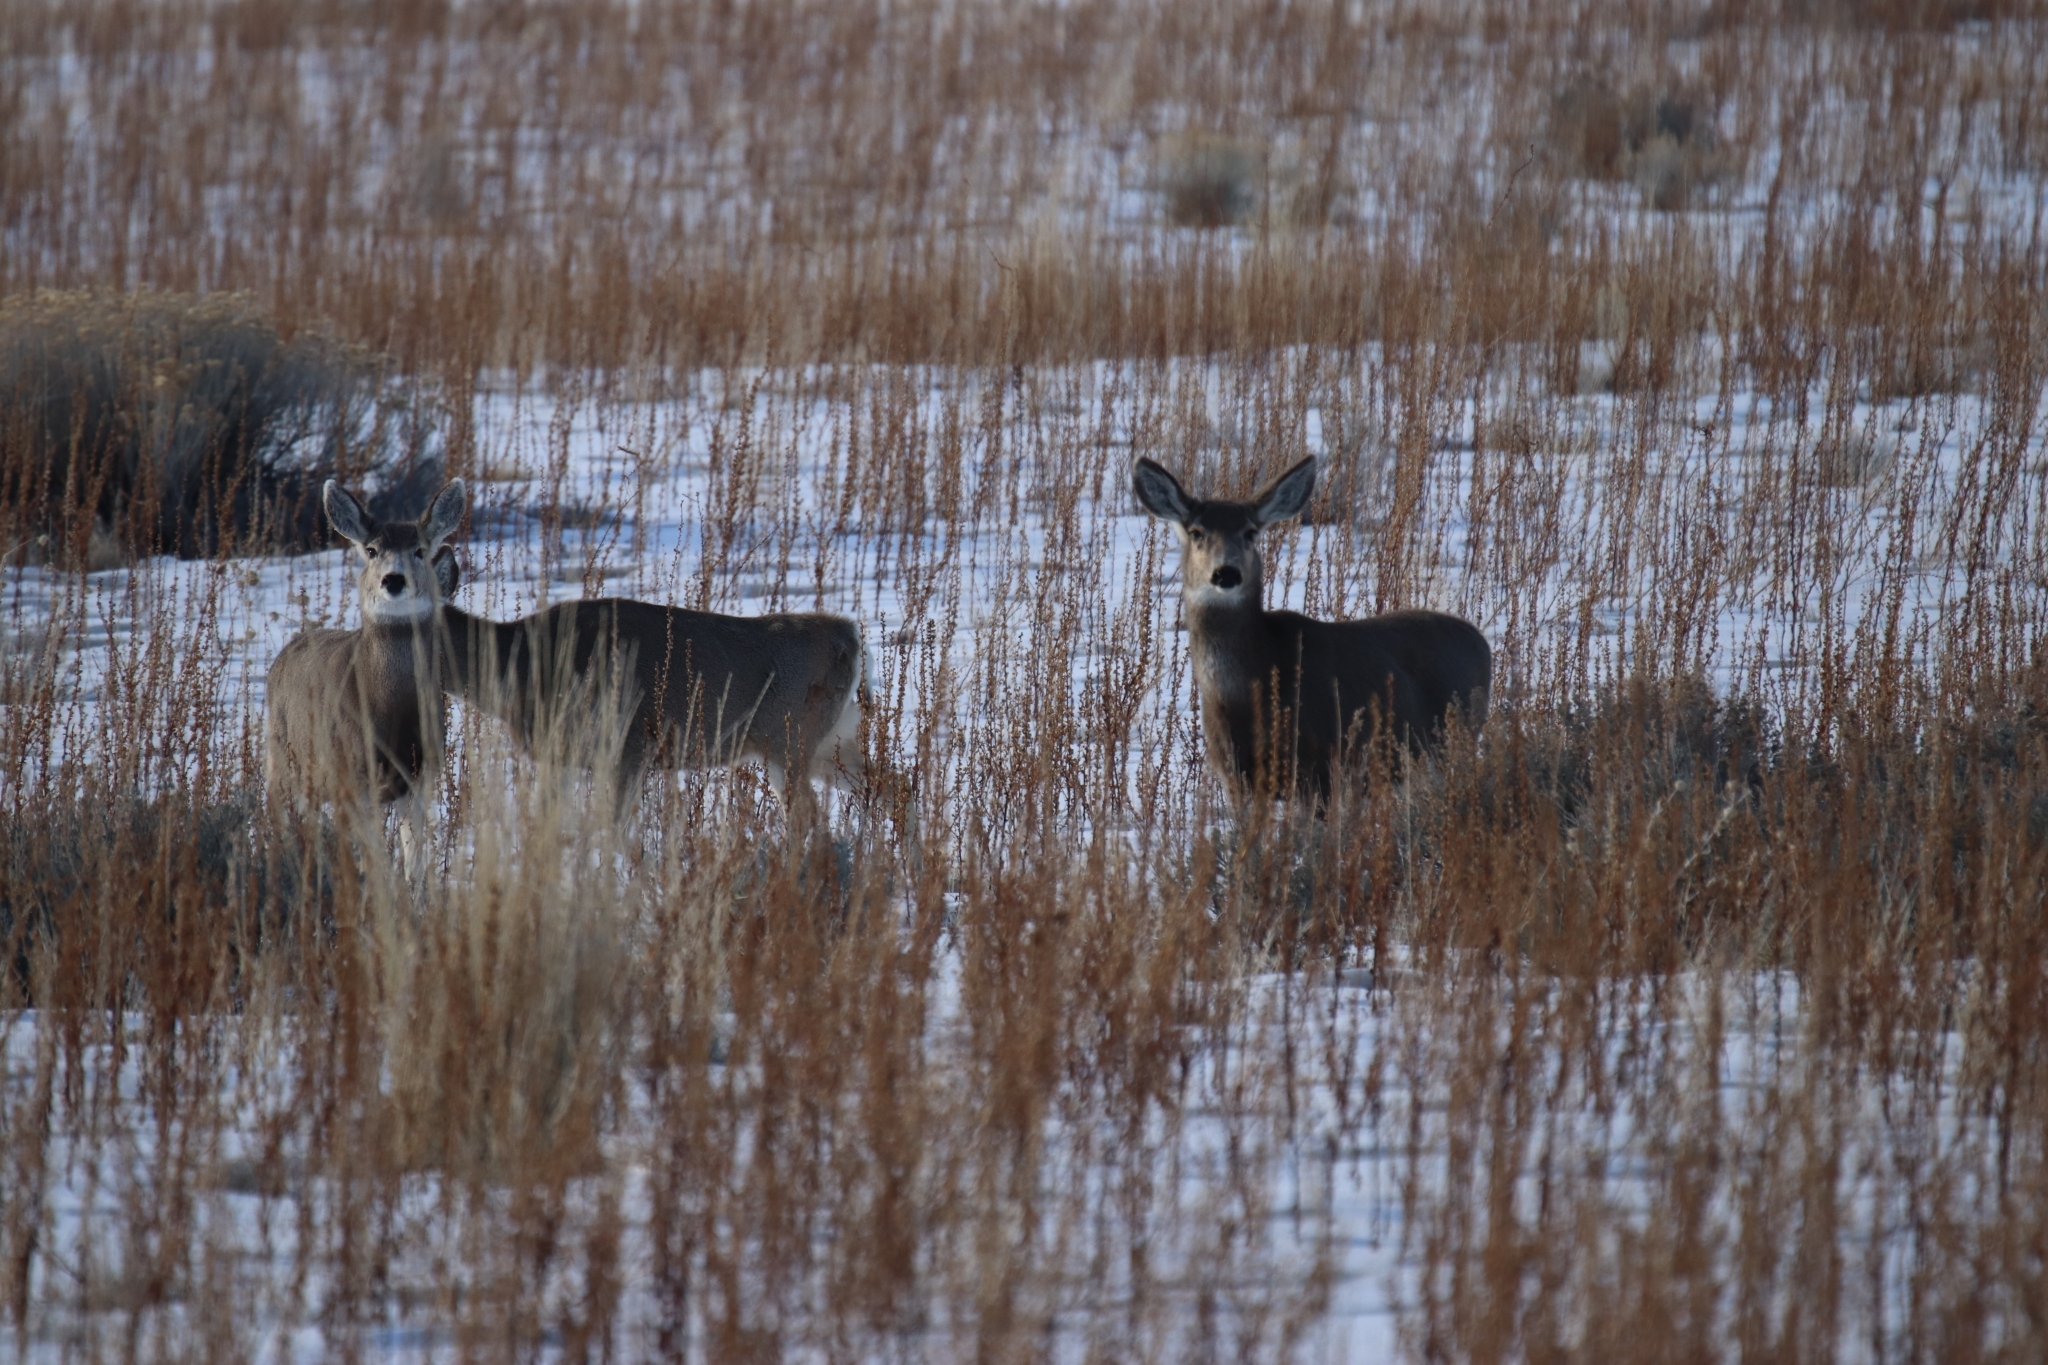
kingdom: Animalia
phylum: Chordata
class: Mammalia
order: Artiodactyla
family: Cervidae
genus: Odocoileus
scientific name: Odocoileus hemionus
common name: Mule deer
